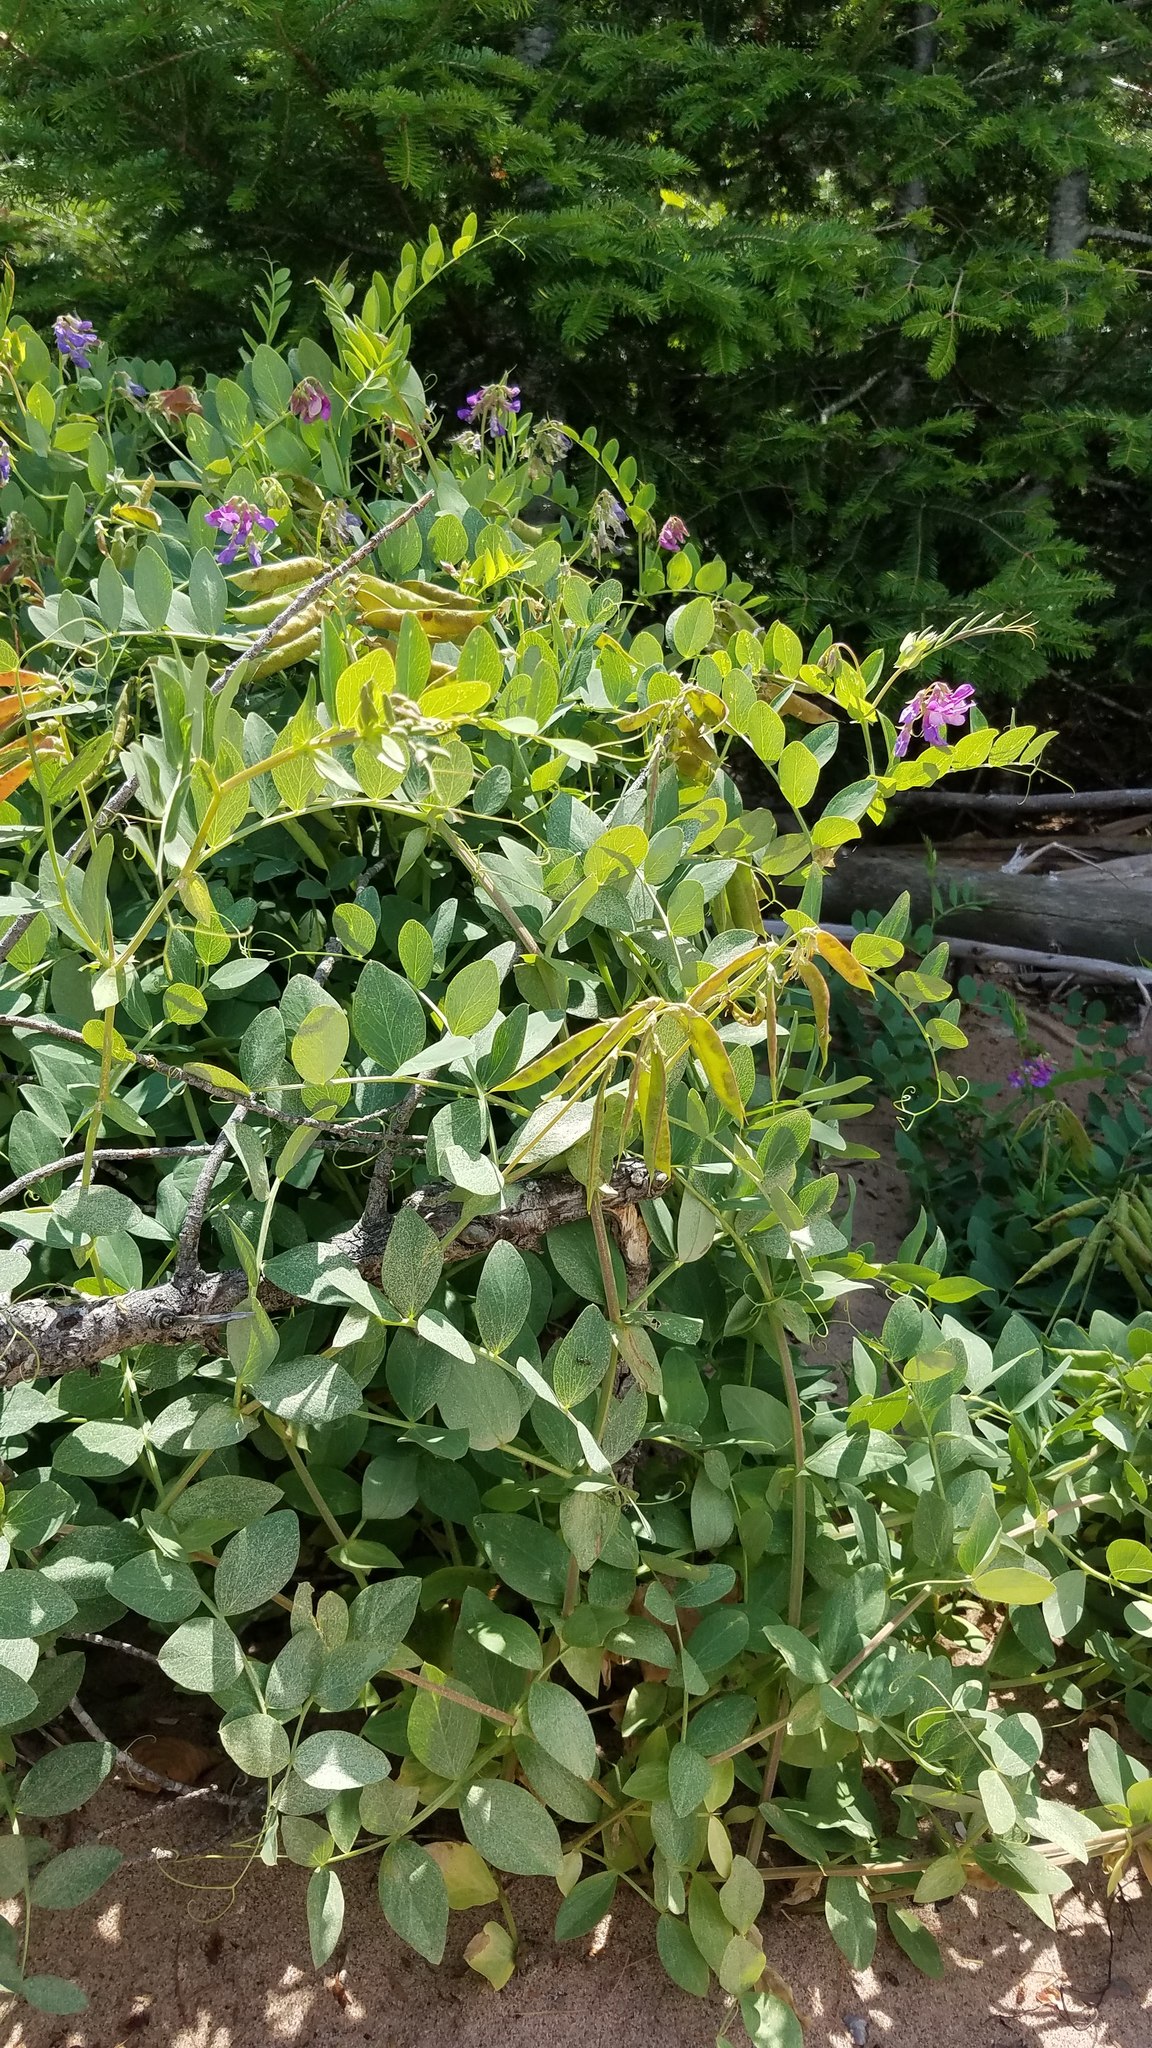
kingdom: Plantae
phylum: Tracheophyta
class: Magnoliopsida
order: Fabales
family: Fabaceae
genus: Lathyrus
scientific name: Lathyrus japonicus
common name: Sea pea
